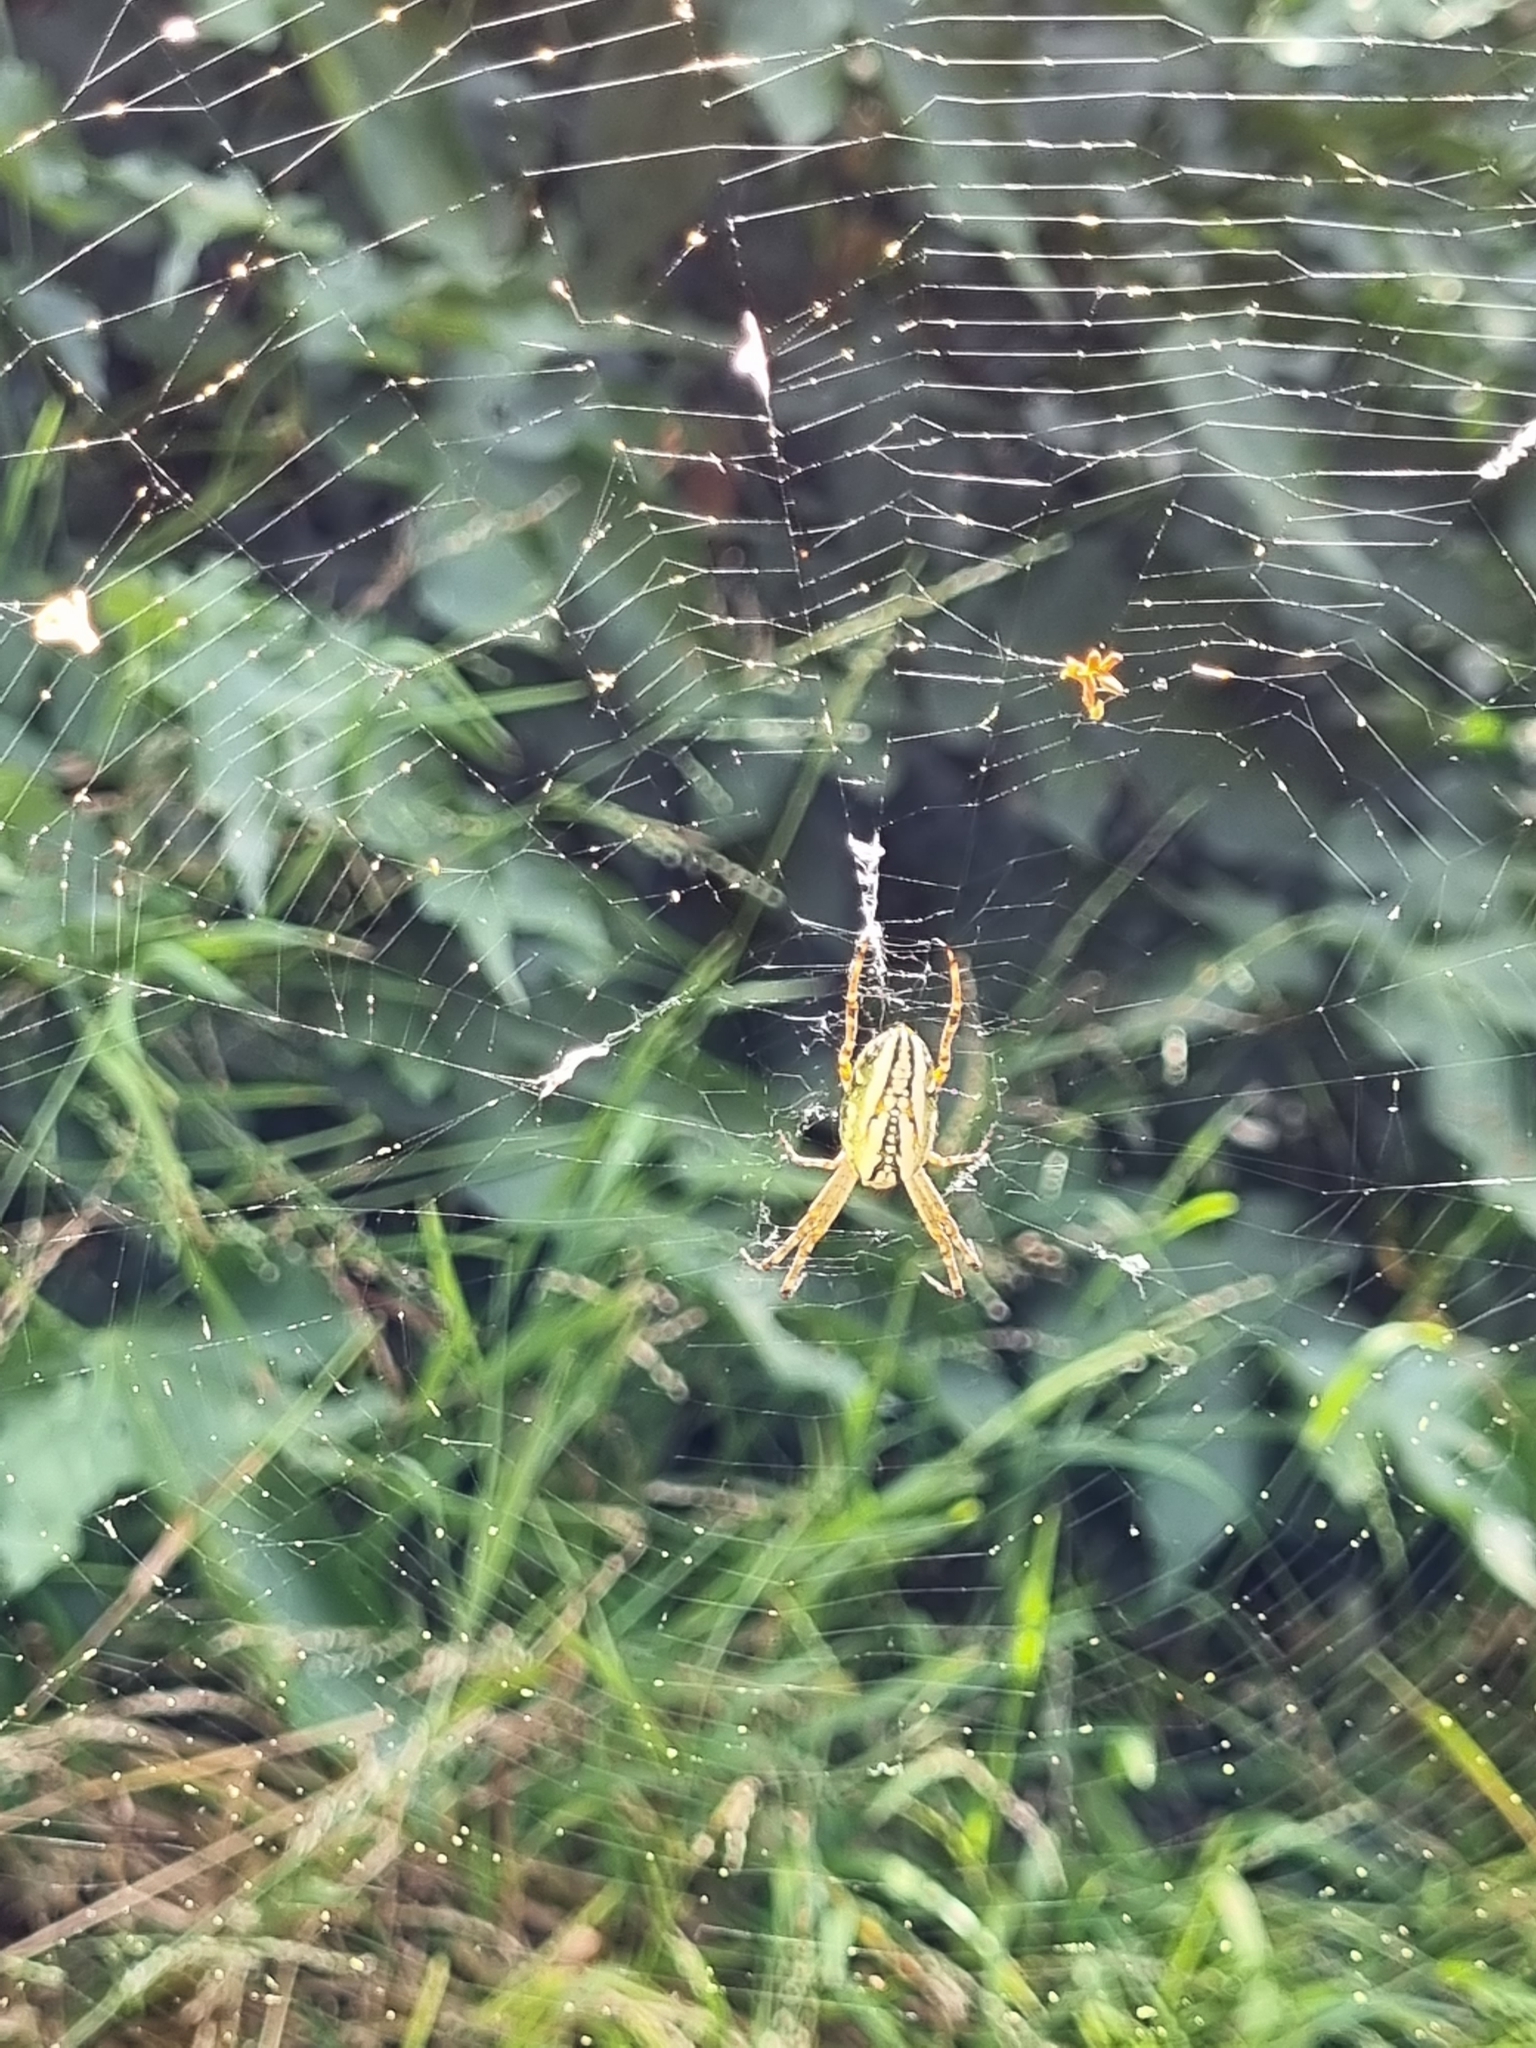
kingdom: Animalia
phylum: Arthropoda
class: Arachnida
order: Araneae
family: Araneidae
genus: Plebs
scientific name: Plebs bradleyi
